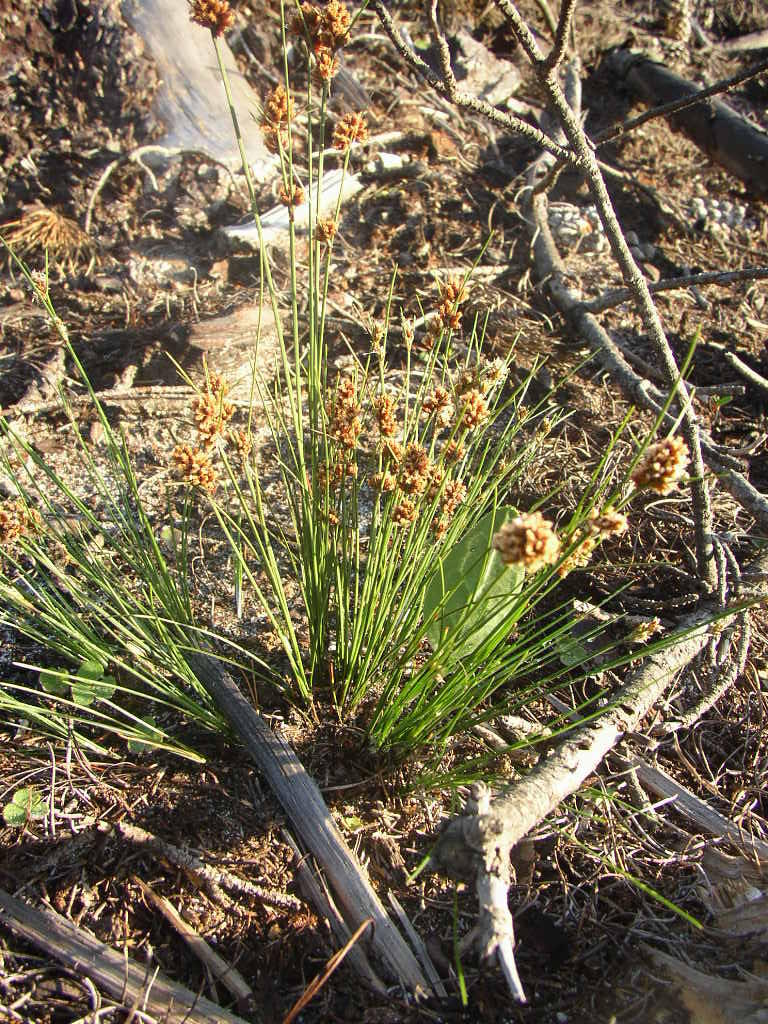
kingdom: Plantae
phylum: Tracheophyta
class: Liliopsida
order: Poales
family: Cyperaceae
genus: Ficinia
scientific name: Ficinia bulbosa
